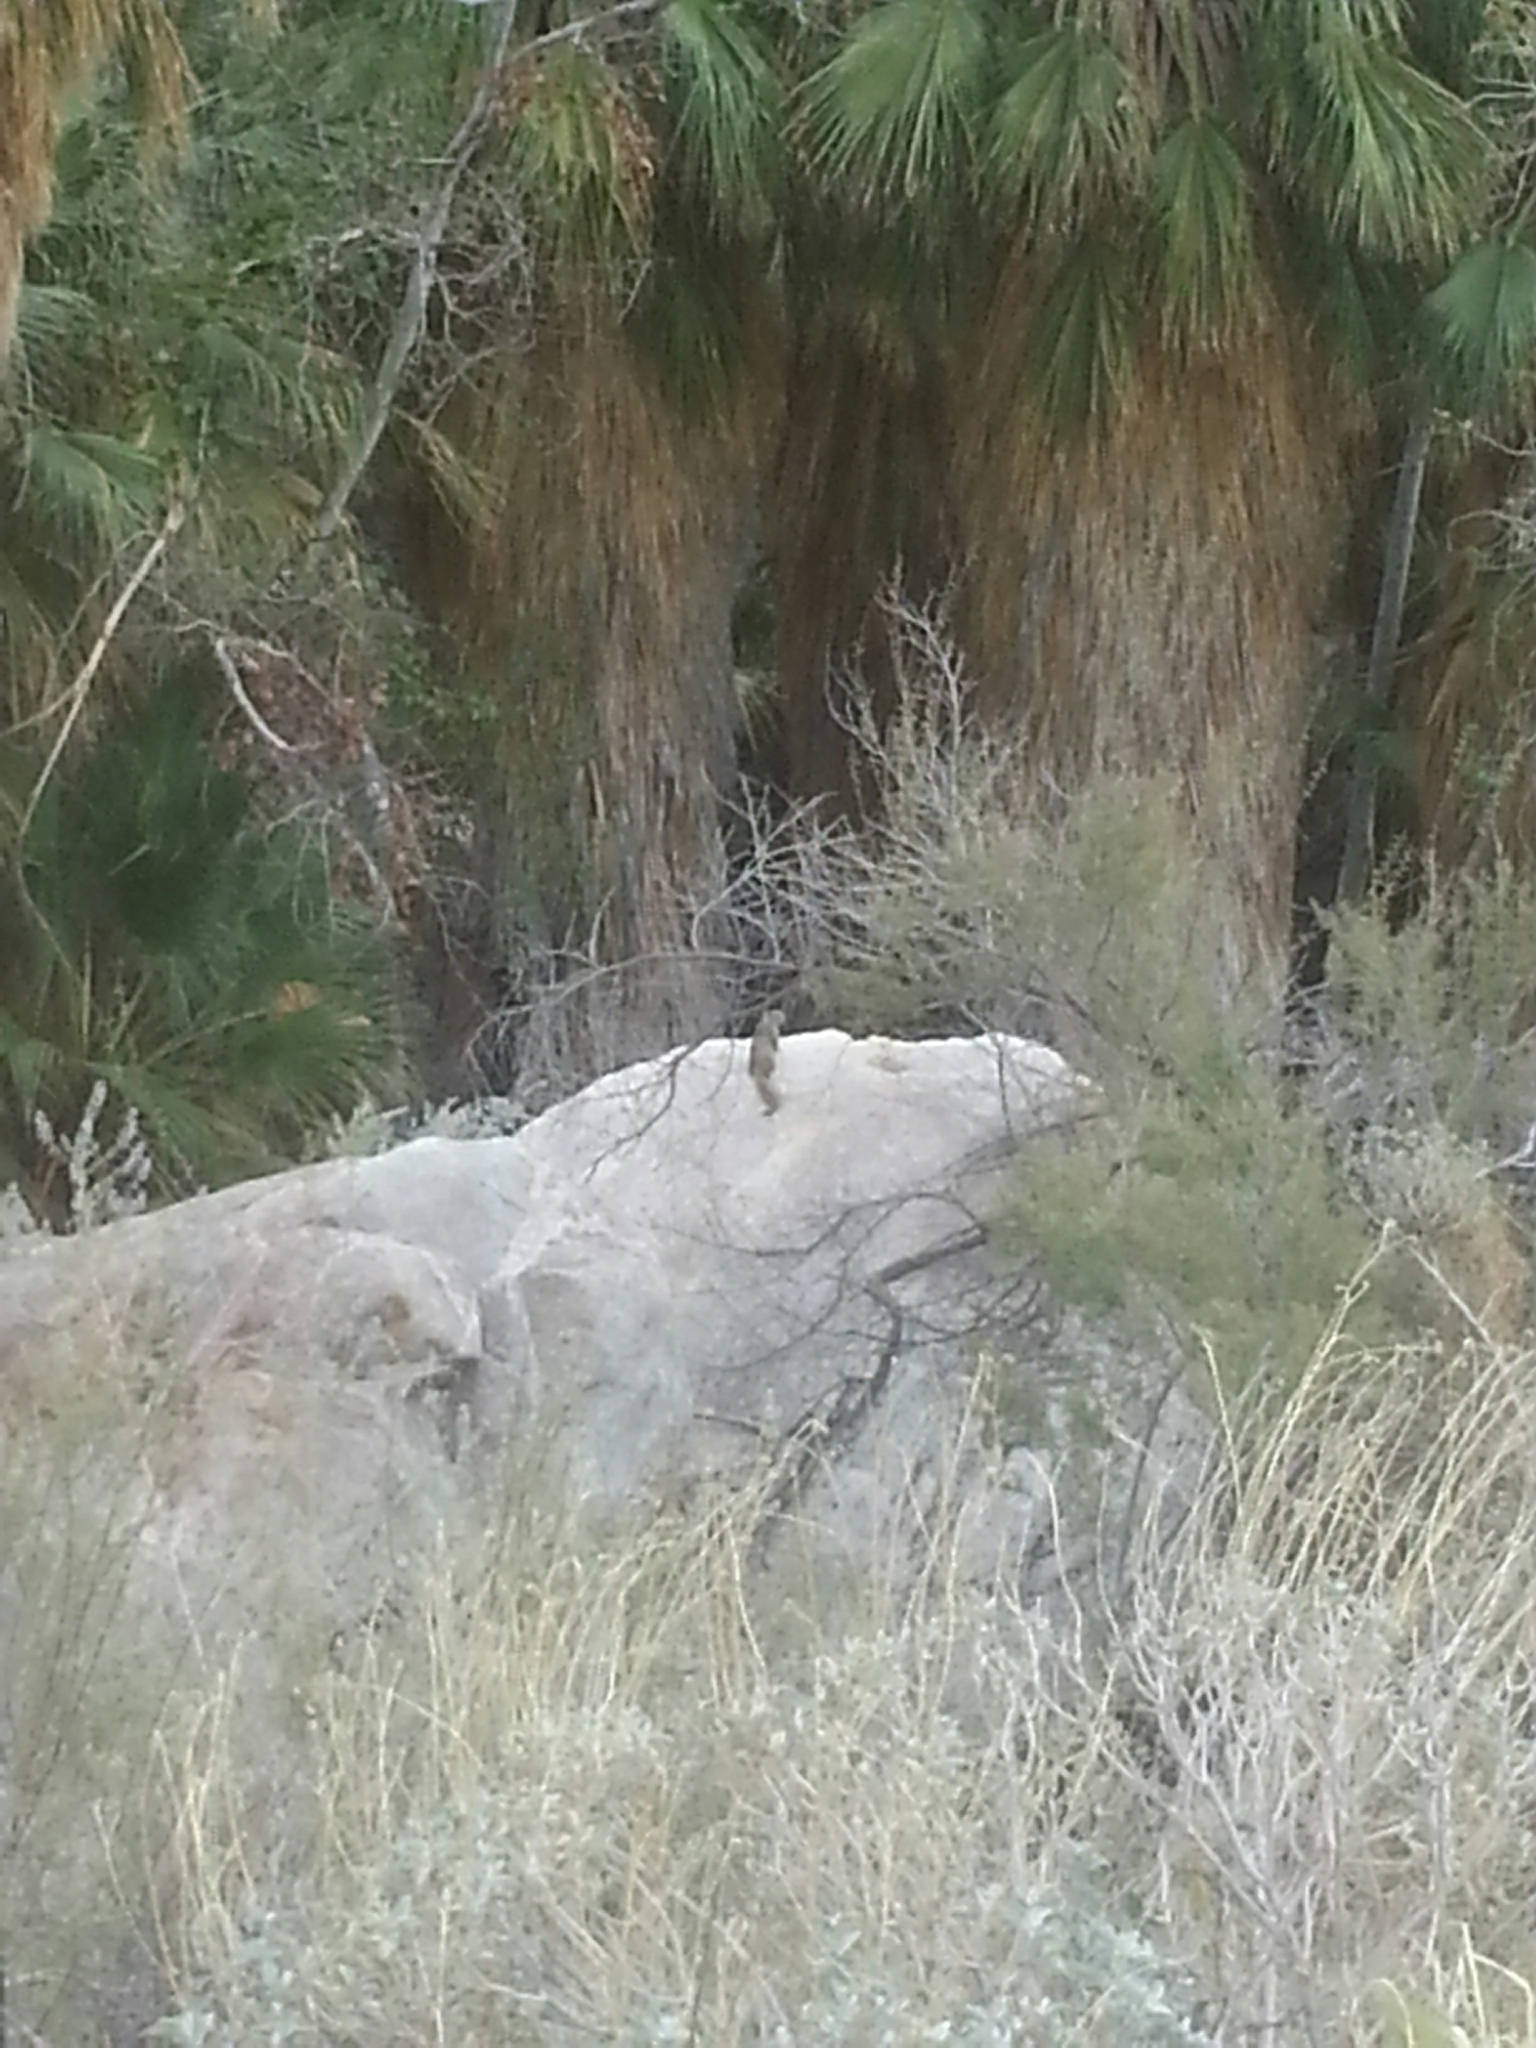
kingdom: Animalia
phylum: Chordata
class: Mammalia
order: Rodentia
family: Sciuridae
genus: Otospermophilus
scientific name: Otospermophilus beecheyi
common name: California ground squirrel
